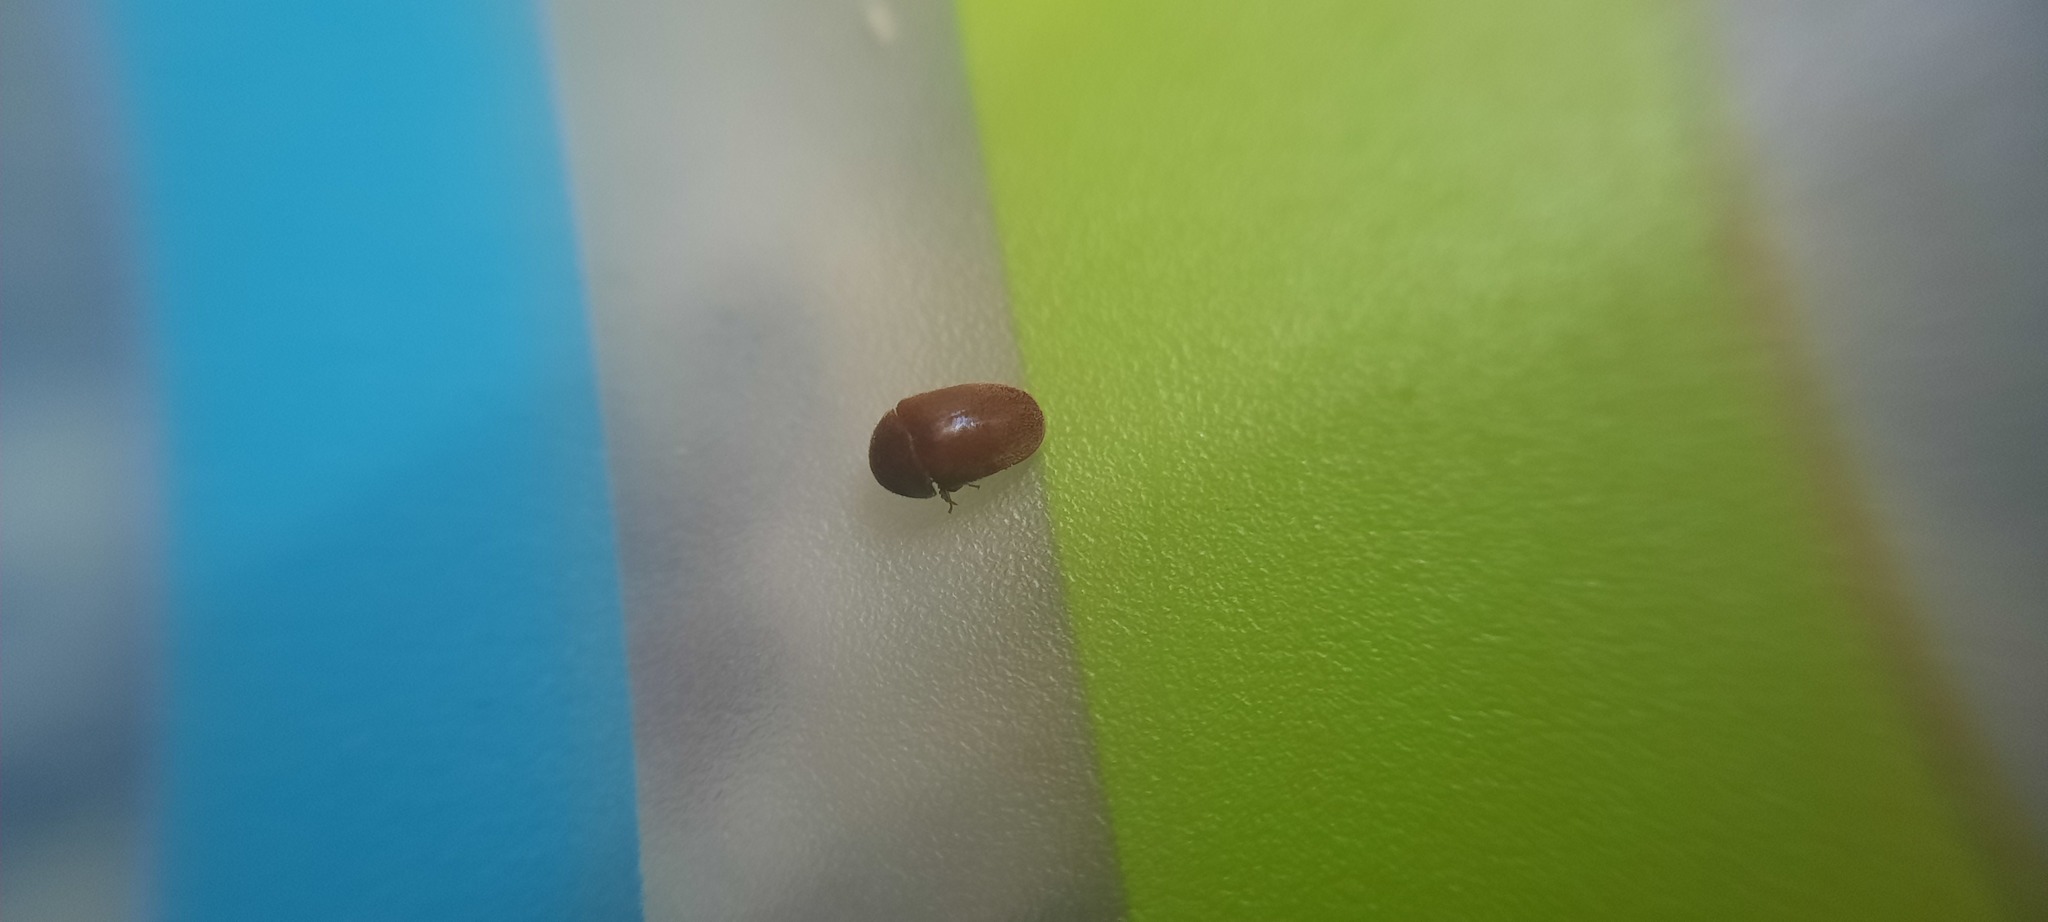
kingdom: Animalia
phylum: Arthropoda
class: Insecta
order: Coleoptera
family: Anobiidae
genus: Lasioderma
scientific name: Lasioderma serricorne
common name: Cigarette beetle
